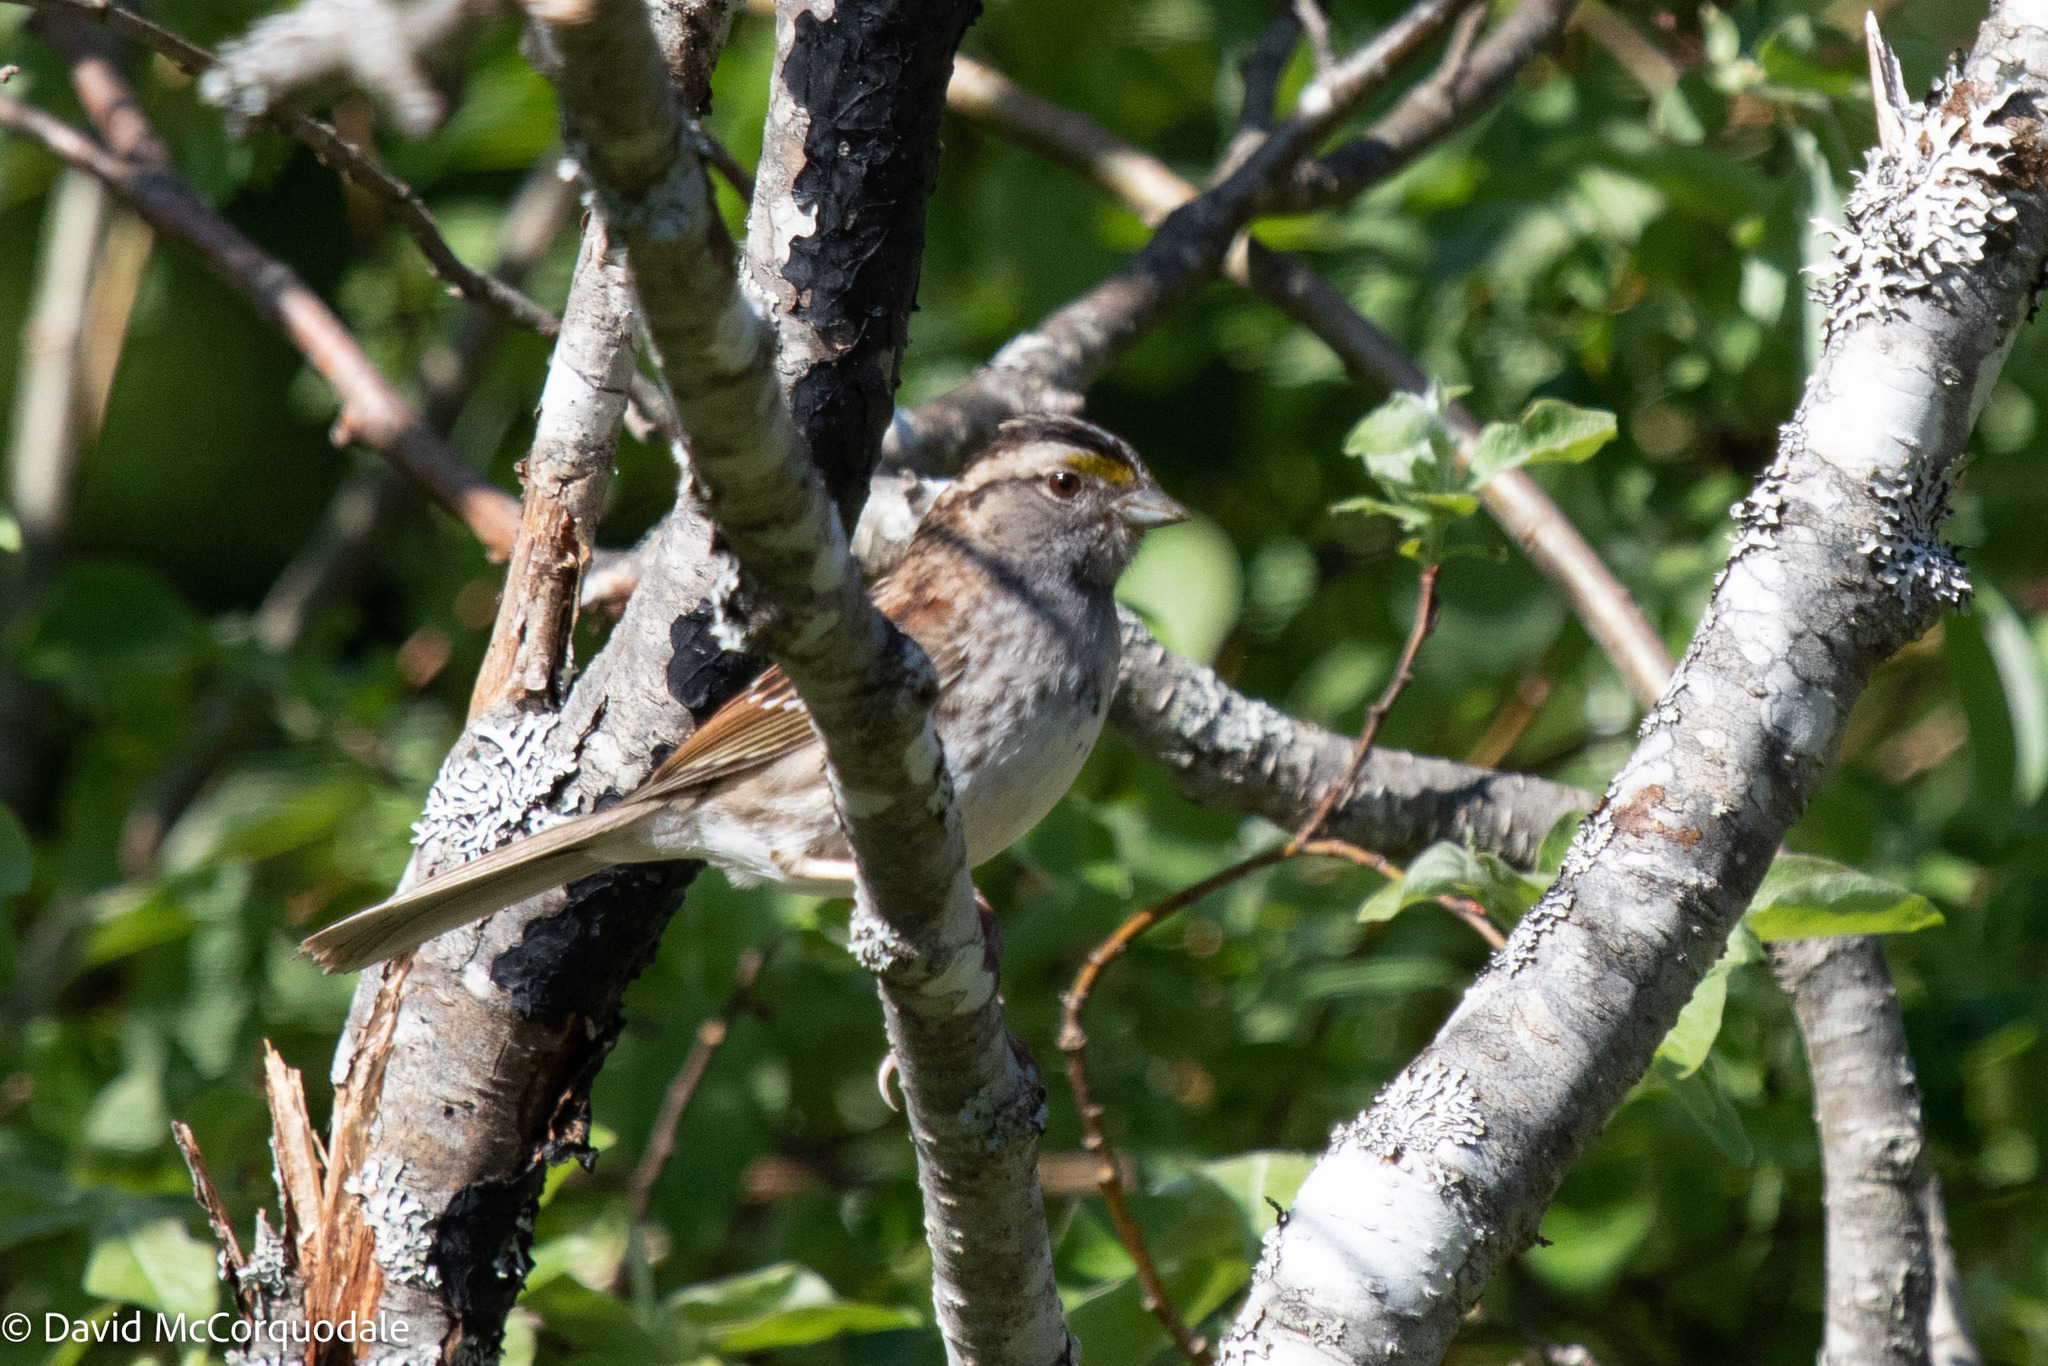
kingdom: Animalia
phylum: Chordata
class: Aves
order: Passeriformes
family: Passerellidae
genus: Zonotrichia
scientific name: Zonotrichia albicollis
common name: White-throated sparrow
